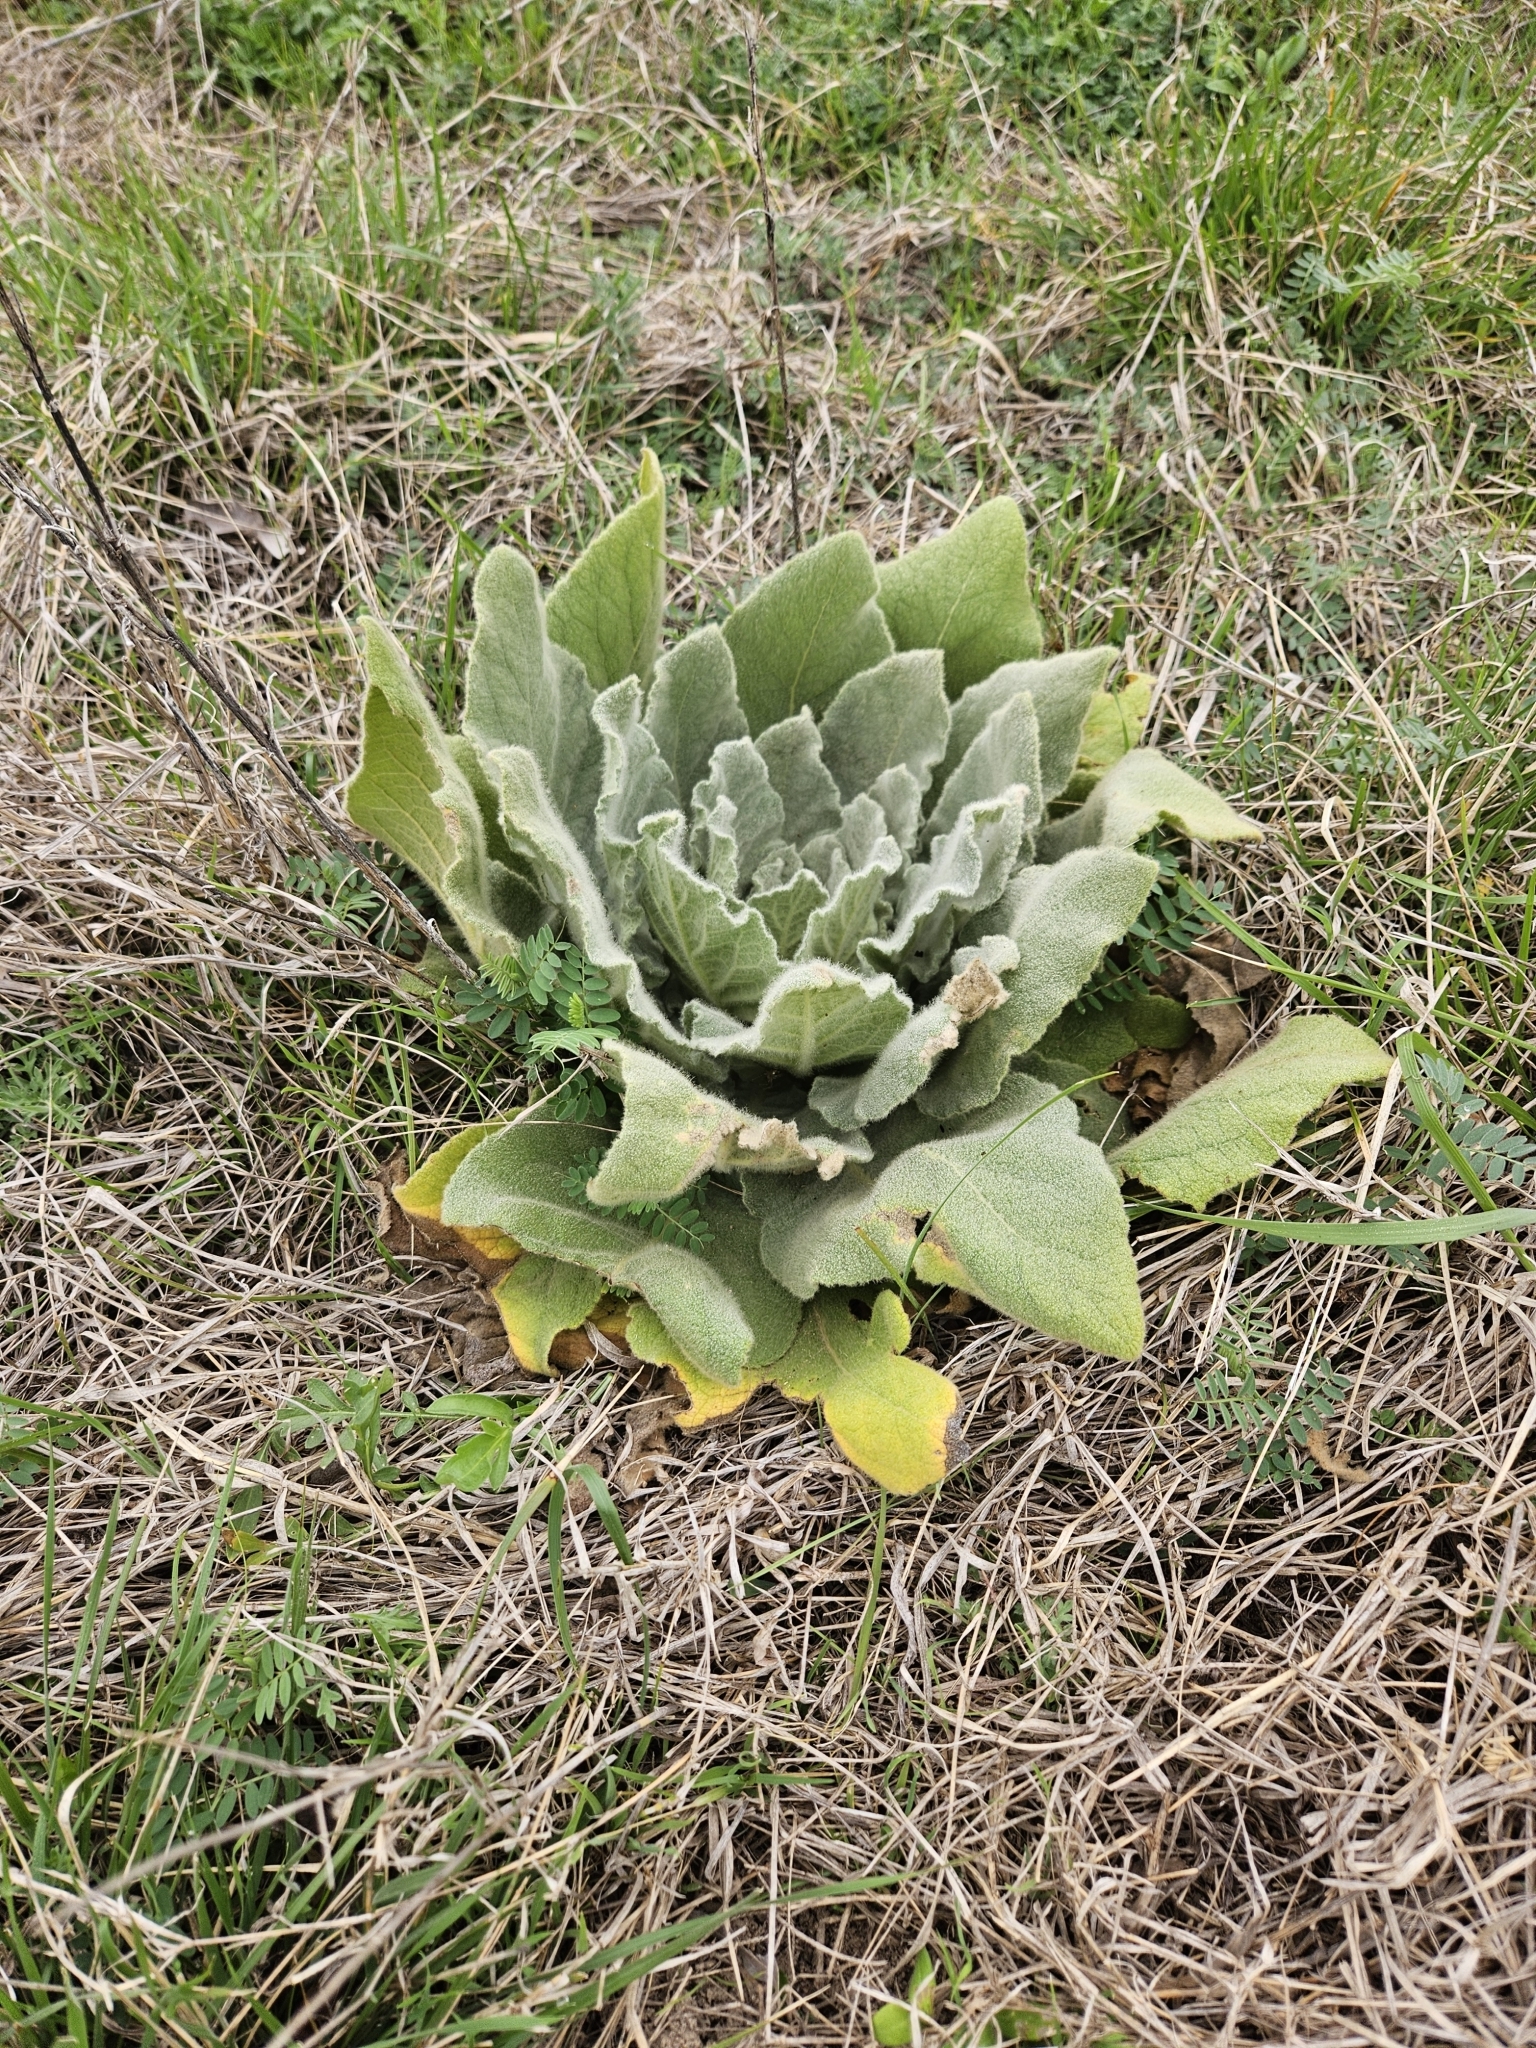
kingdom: Plantae
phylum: Tracheophyta
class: Magnoliopsida
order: Lamiales
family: Scrophulariaceae
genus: Verbascum
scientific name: Verbascum thapsus
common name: Common mullein
